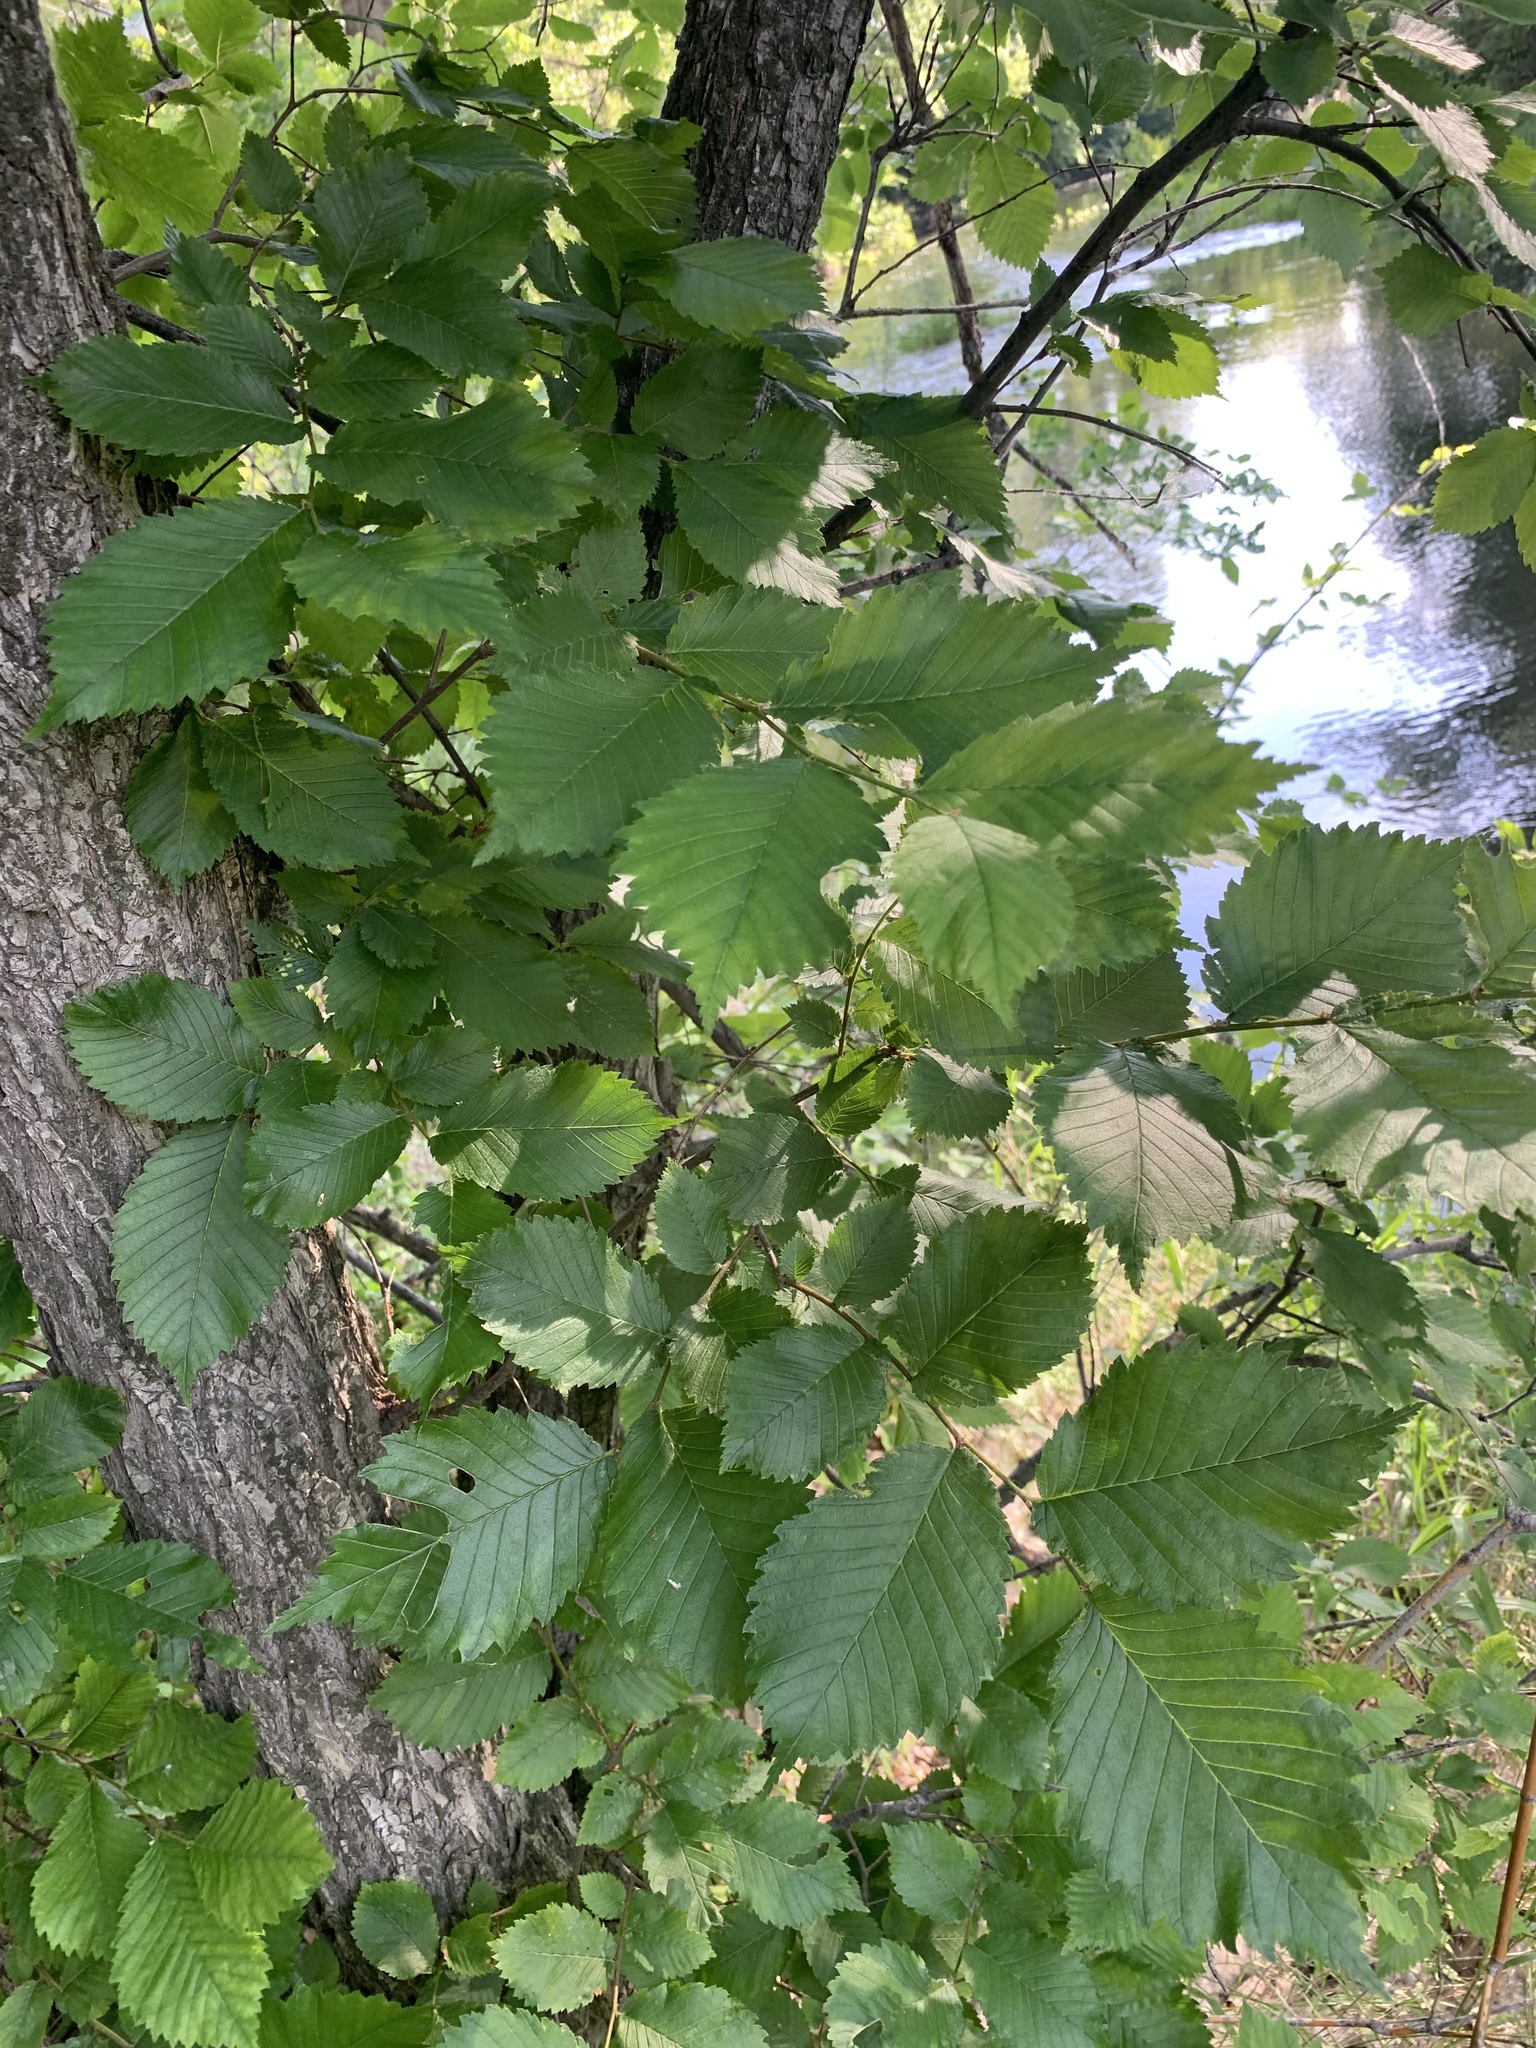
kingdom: Plantae
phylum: Tracheophyta
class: Magnoliopsida
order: Rosales
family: Ulmaceae
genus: Ulmus
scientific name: Ulmus laevis
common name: European white-elm
